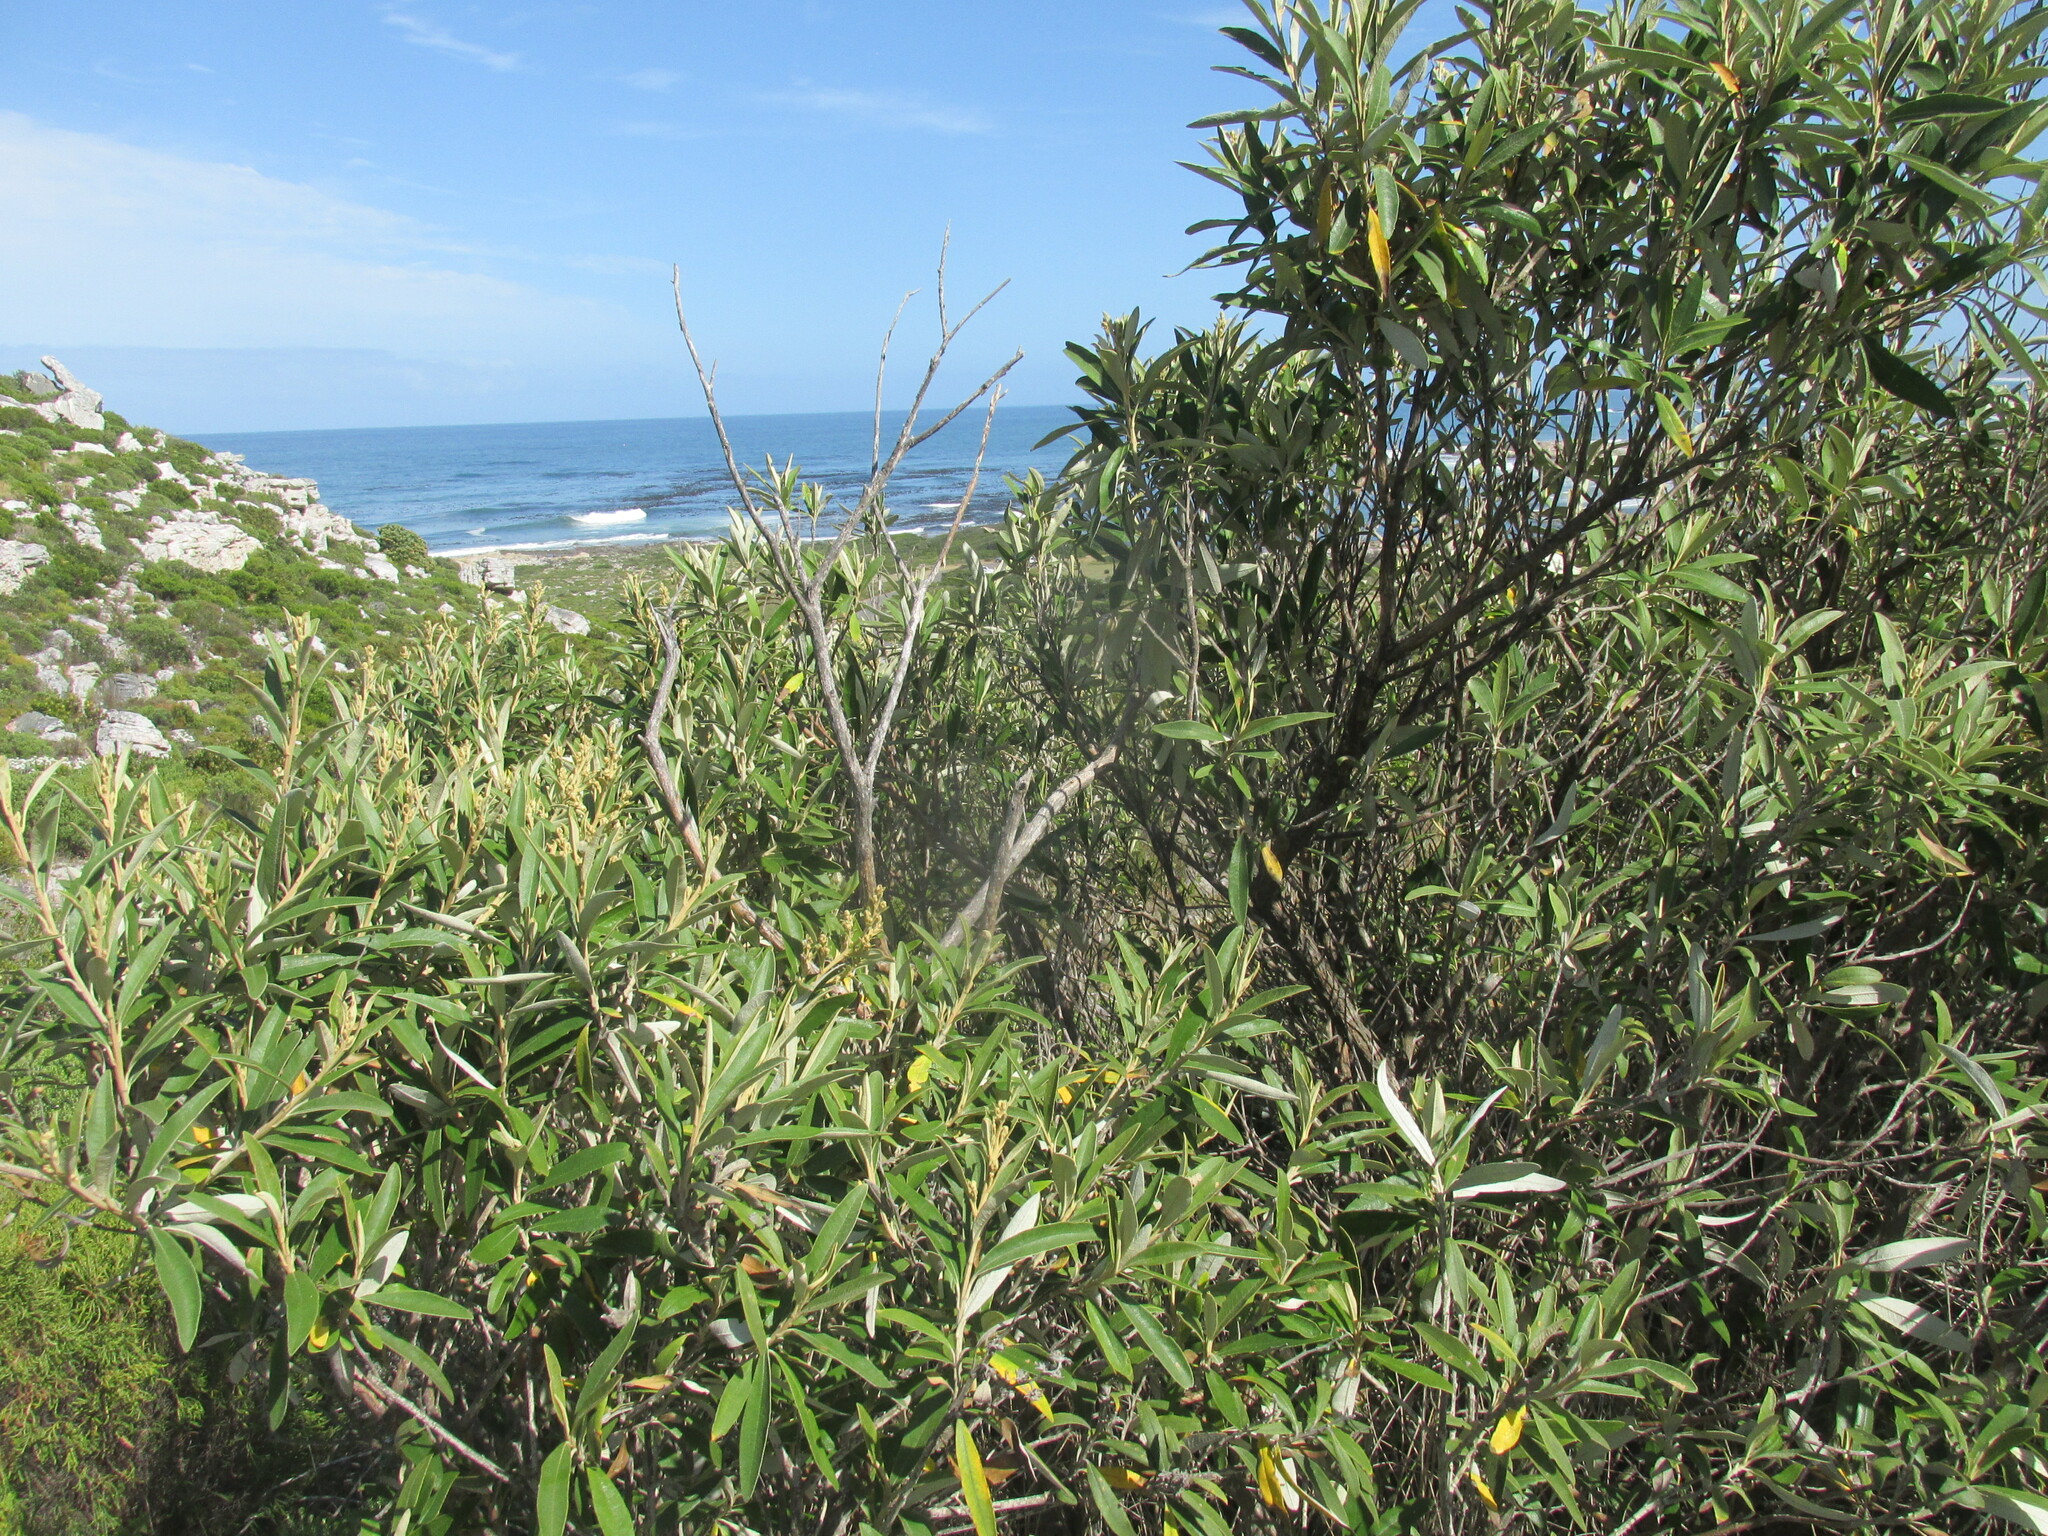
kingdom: Plantae
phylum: Tracheophyta
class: Magnoliopsida
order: Asterales
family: Asteraceae
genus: Tarchonanthus
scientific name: Tarchonanthus littoralis
